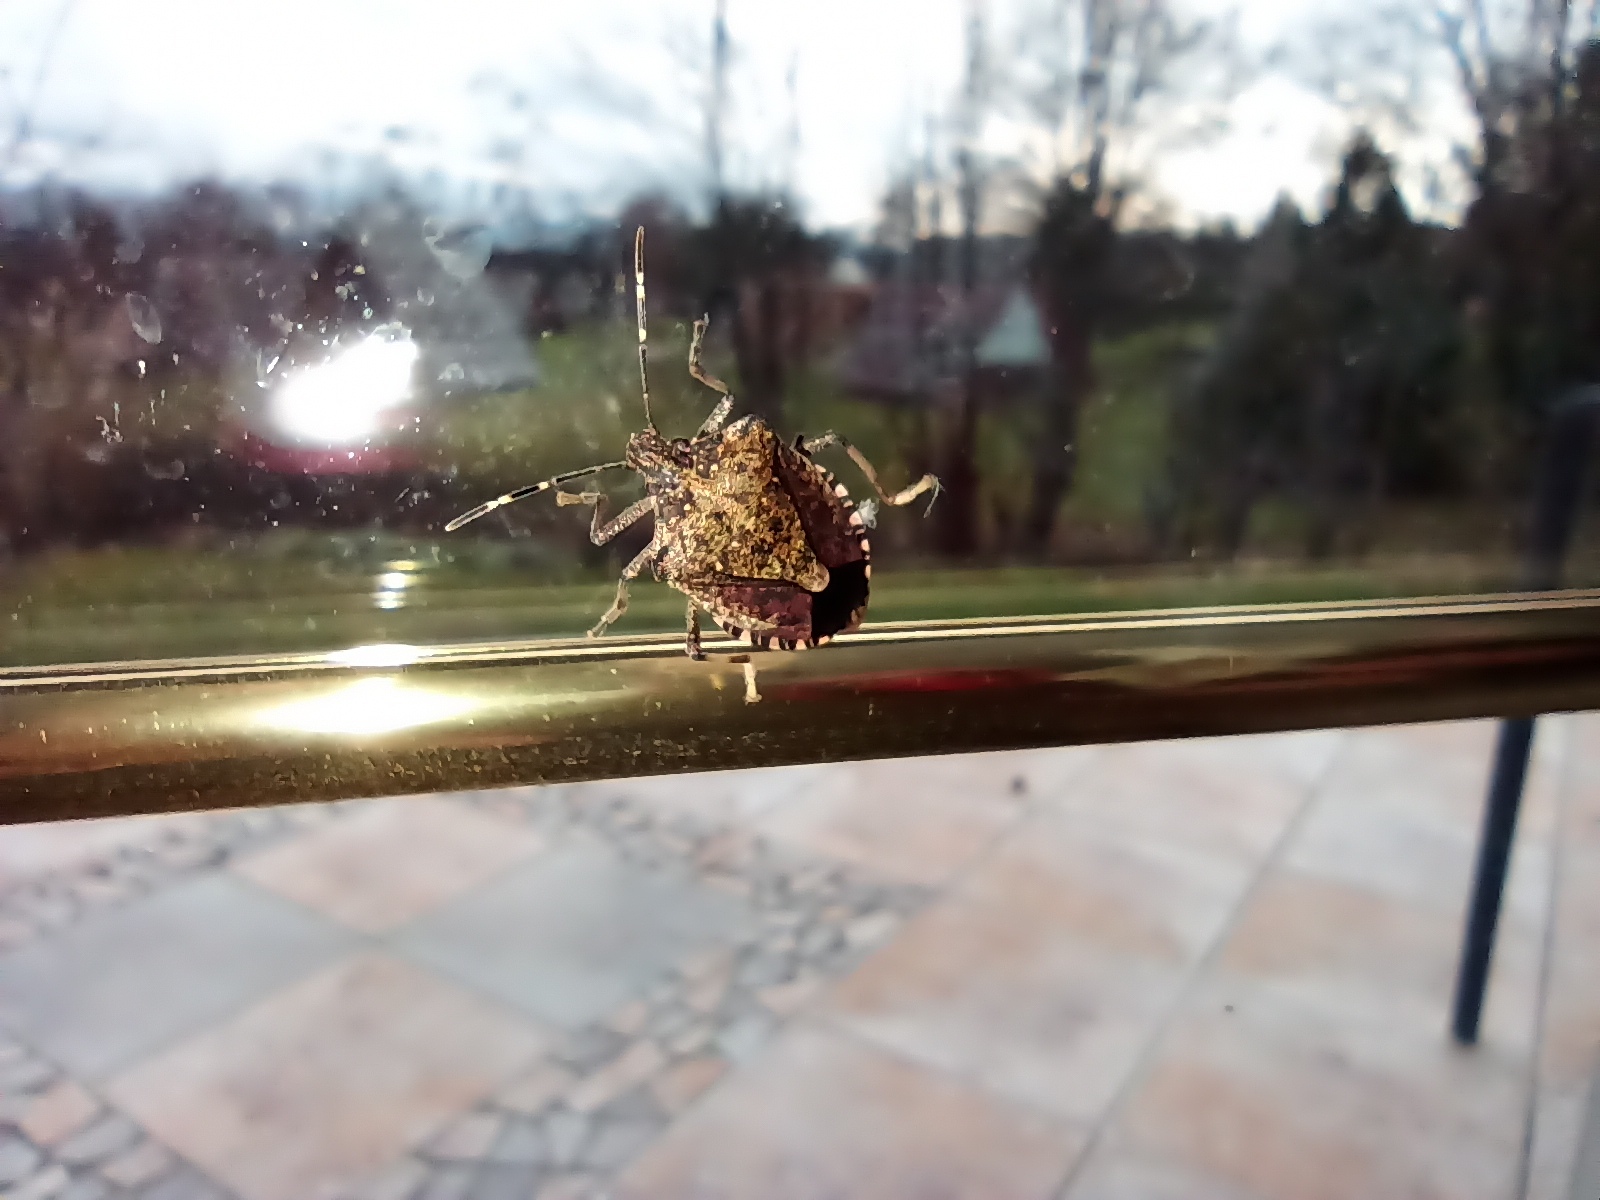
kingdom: Animalia
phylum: Arthropoda
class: Insecta
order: Hemiptera
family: Pentatomidae
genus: Halyomorpha
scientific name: Halyomorpha halys
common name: Brown marmorated stink bug
